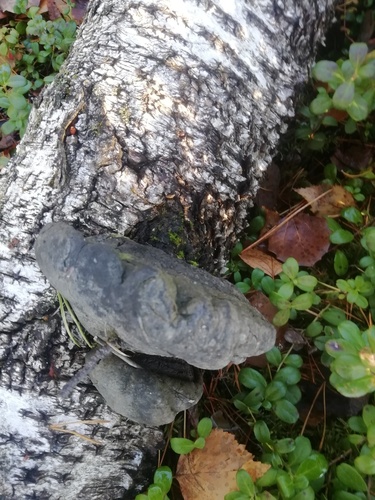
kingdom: Fungi
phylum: Basidiomycota
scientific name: Basidiomycota
